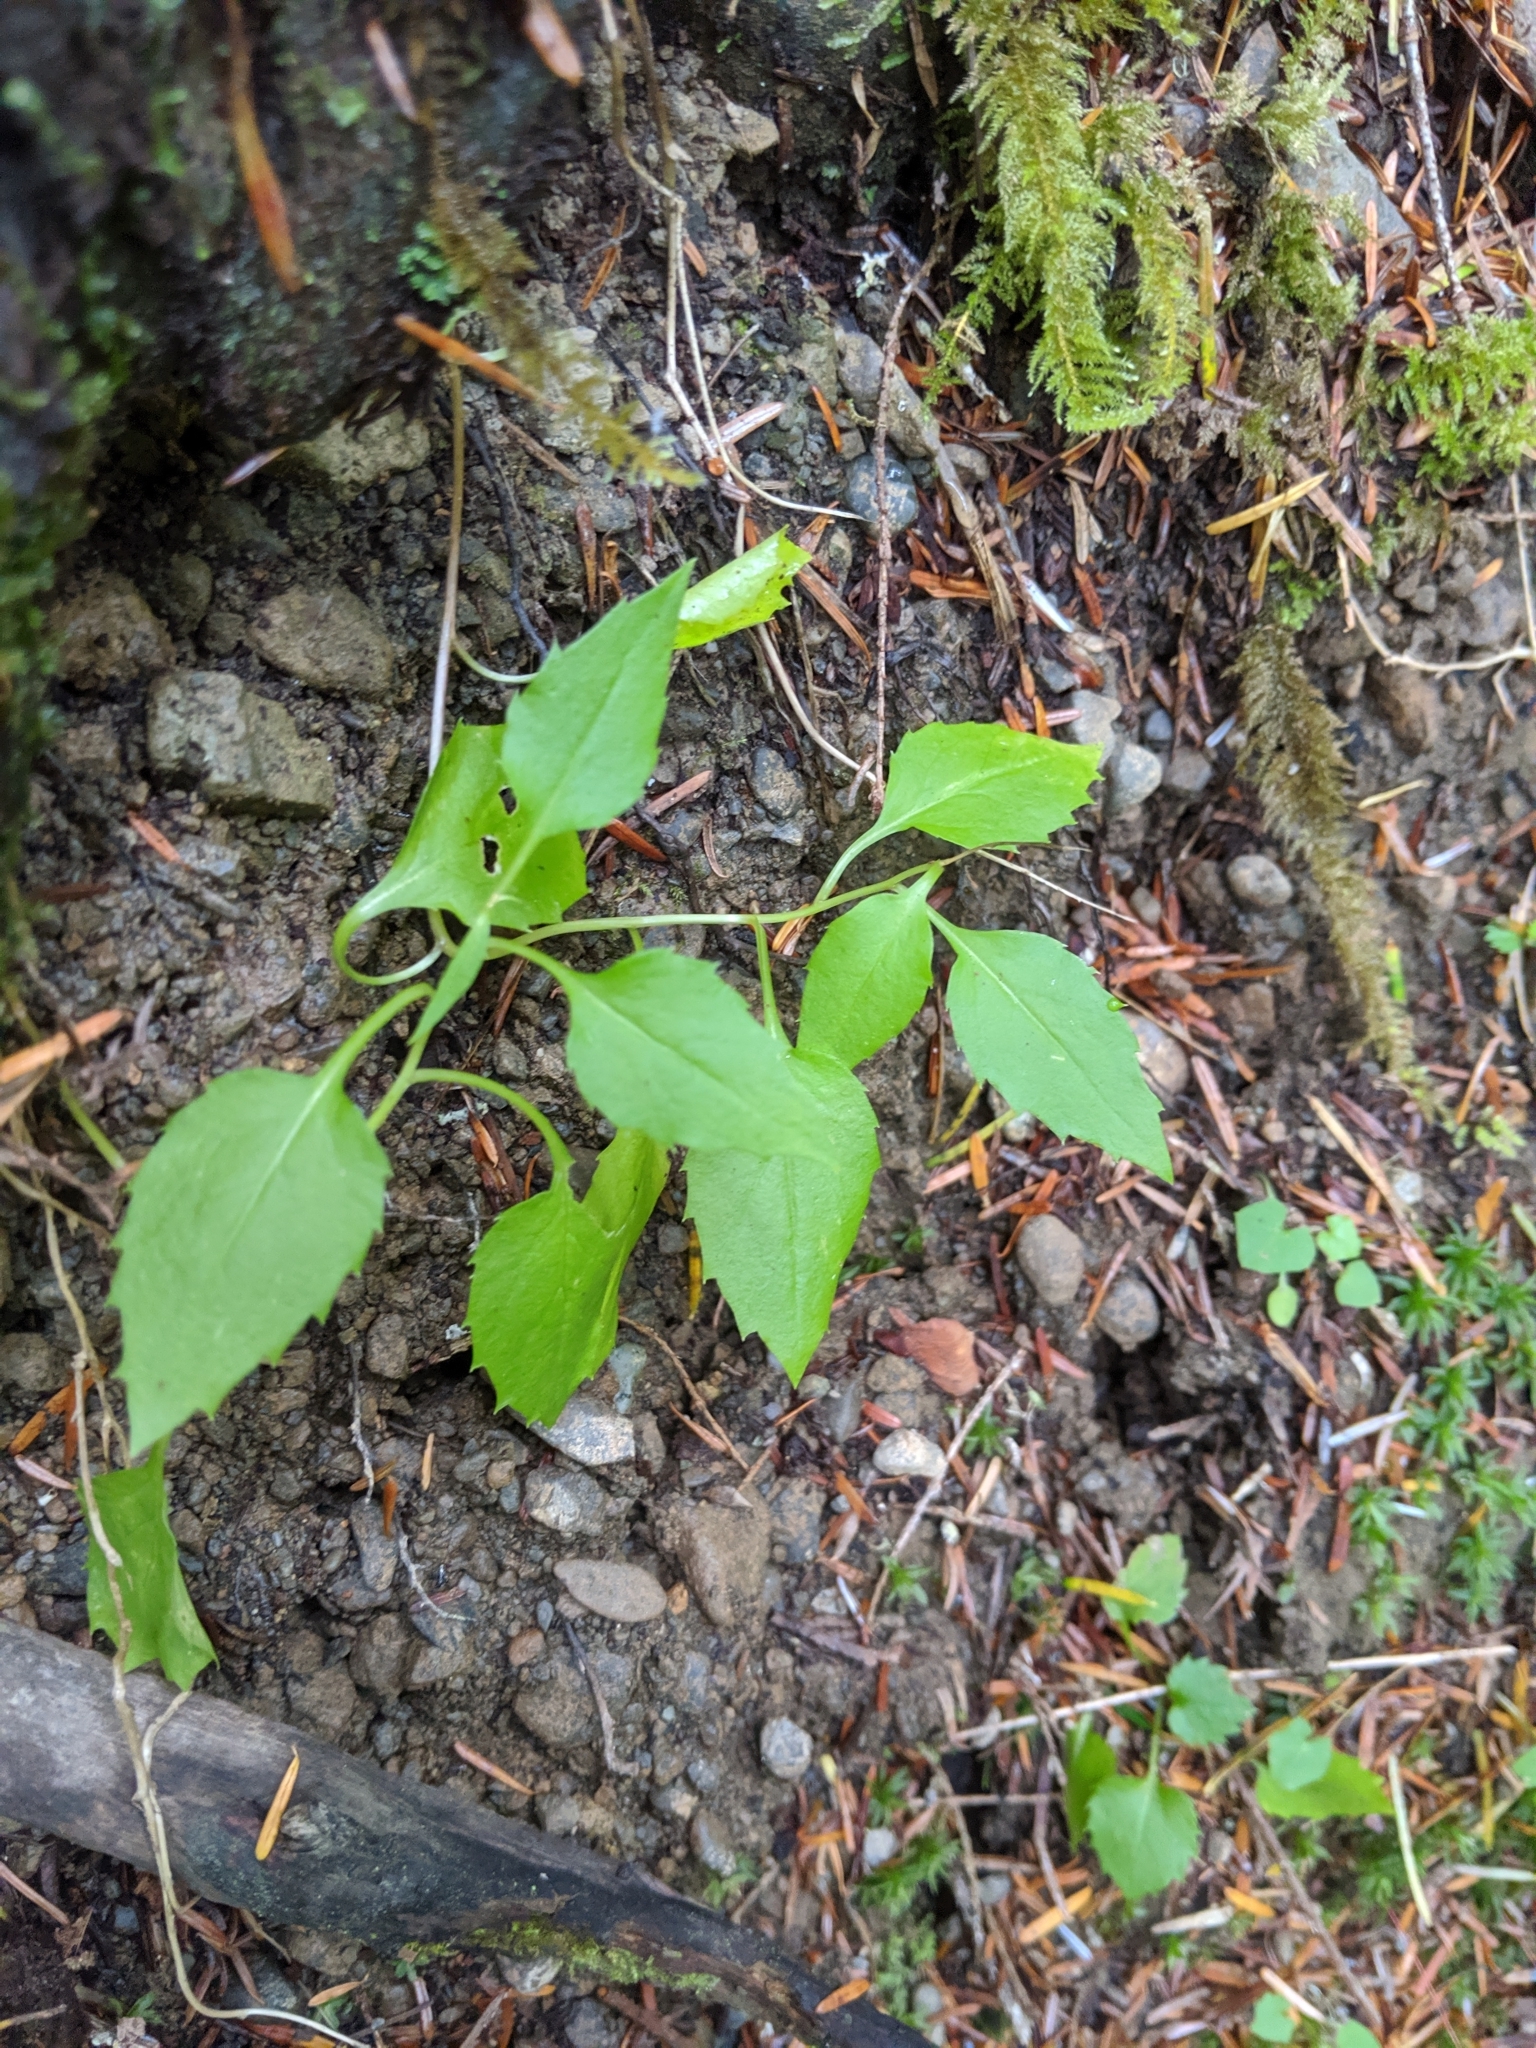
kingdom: Plantae
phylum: Tracheophyta
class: Magnoliopsida
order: Asterales
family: Campanulaceae
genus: Campanula
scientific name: Campanula scouleri
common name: Scouler's harebell
